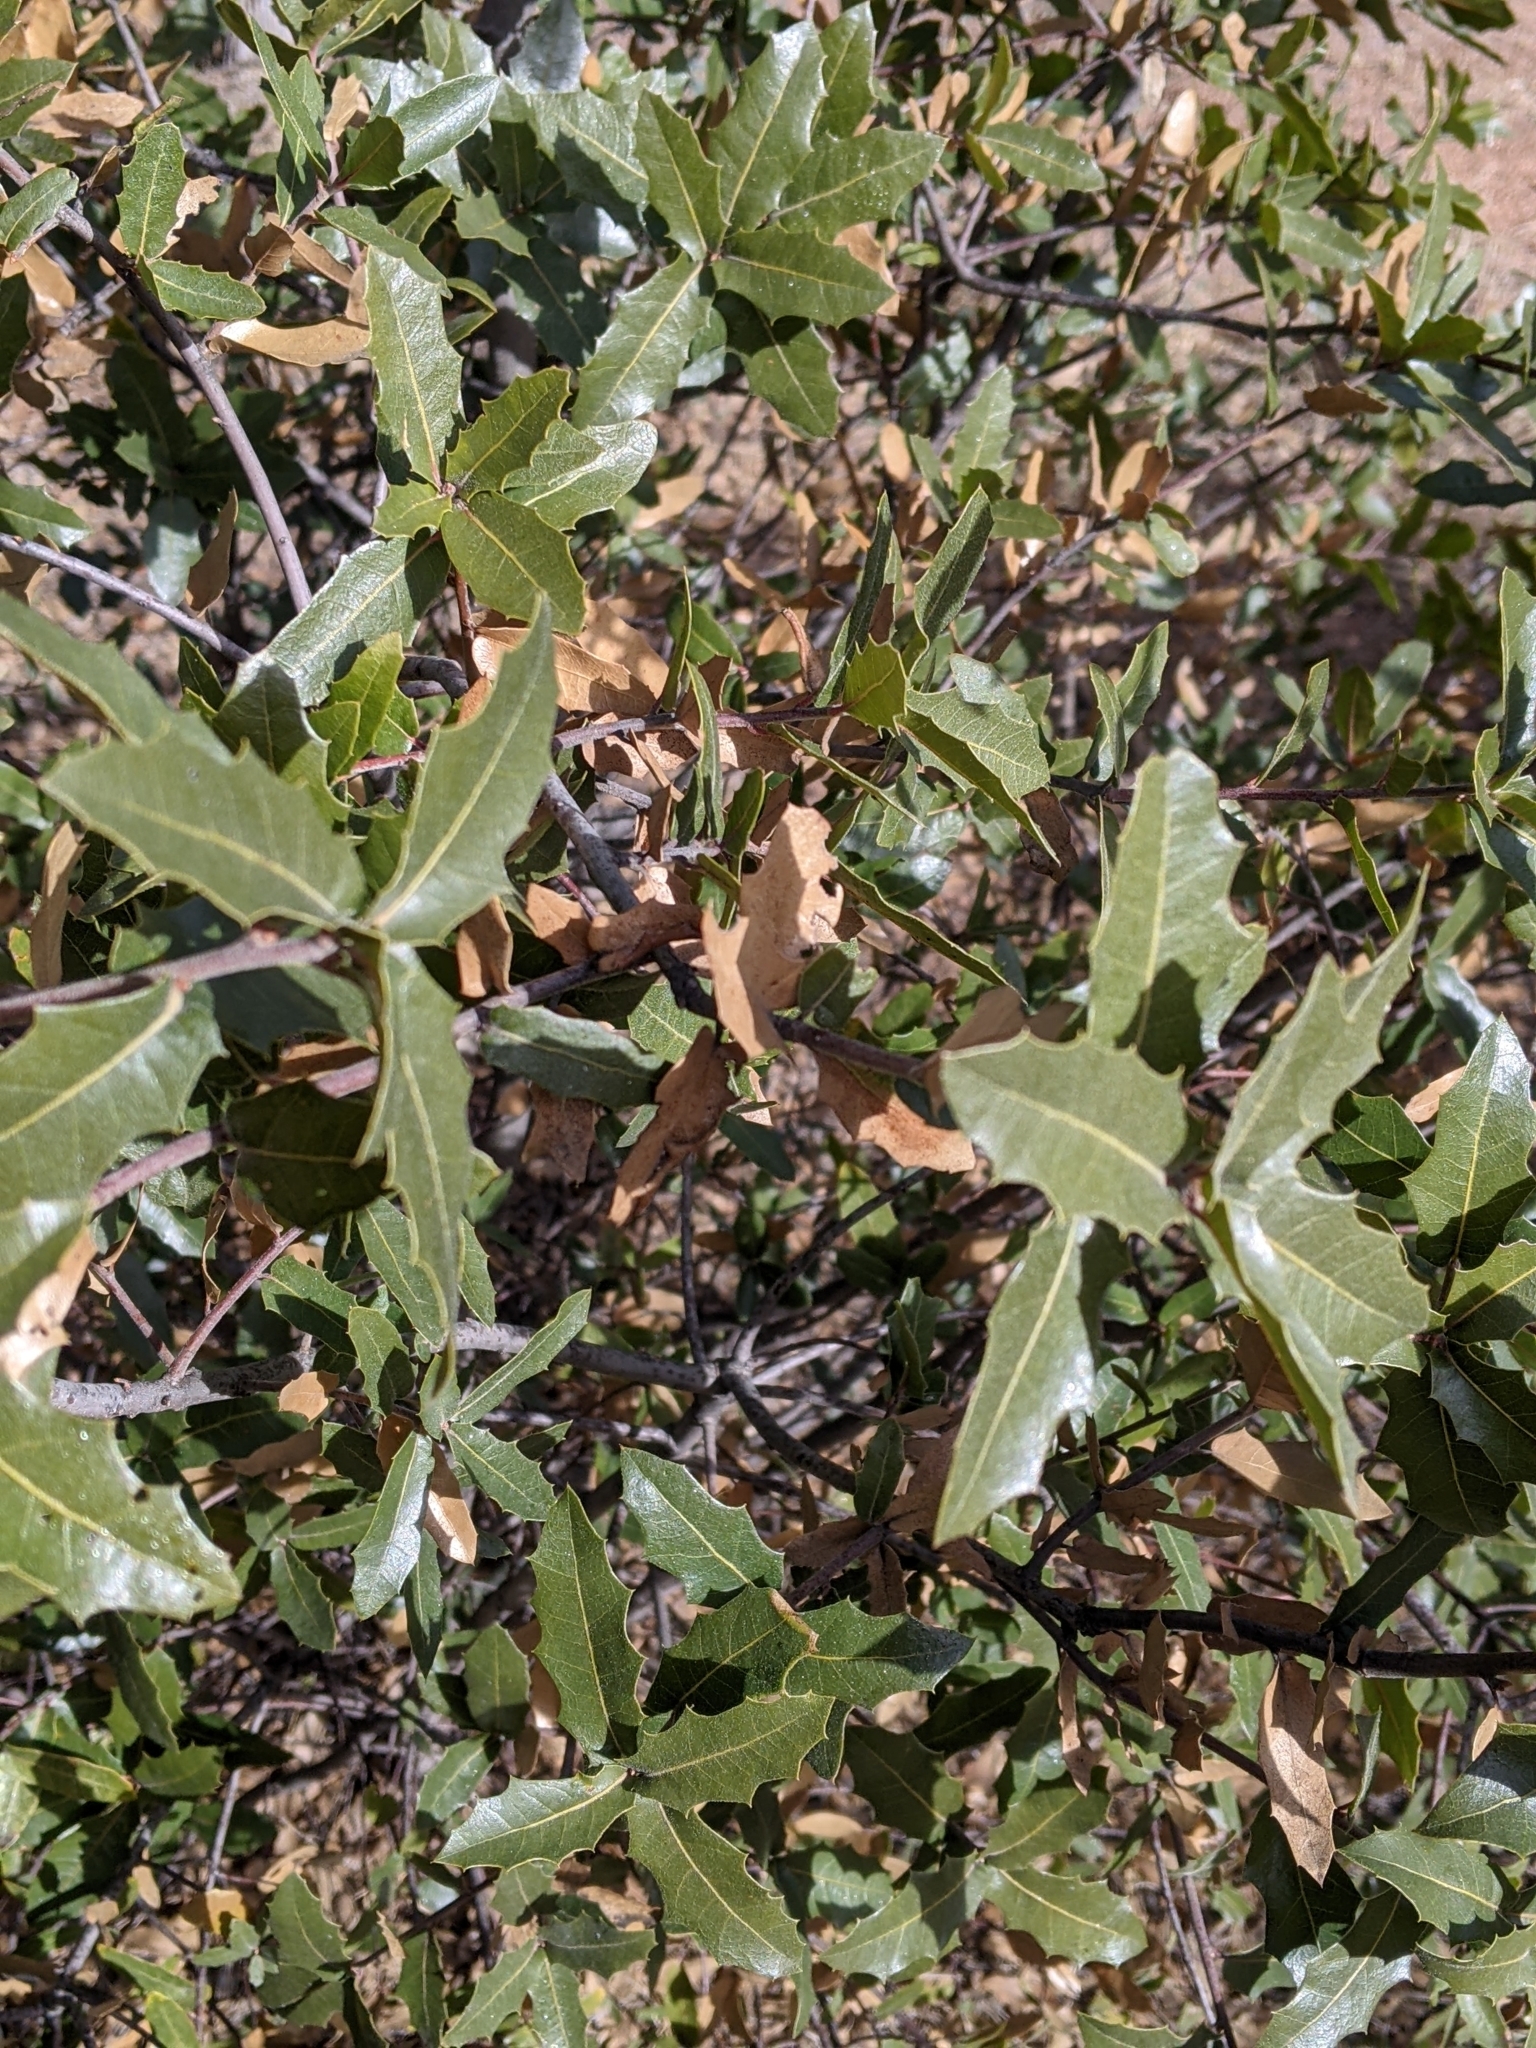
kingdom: Plantae
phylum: Tracheophyta
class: Magnoliopsida
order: Fagales
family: Fagaceae
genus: Quercus
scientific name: Quercus emoryi
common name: Emory oak
